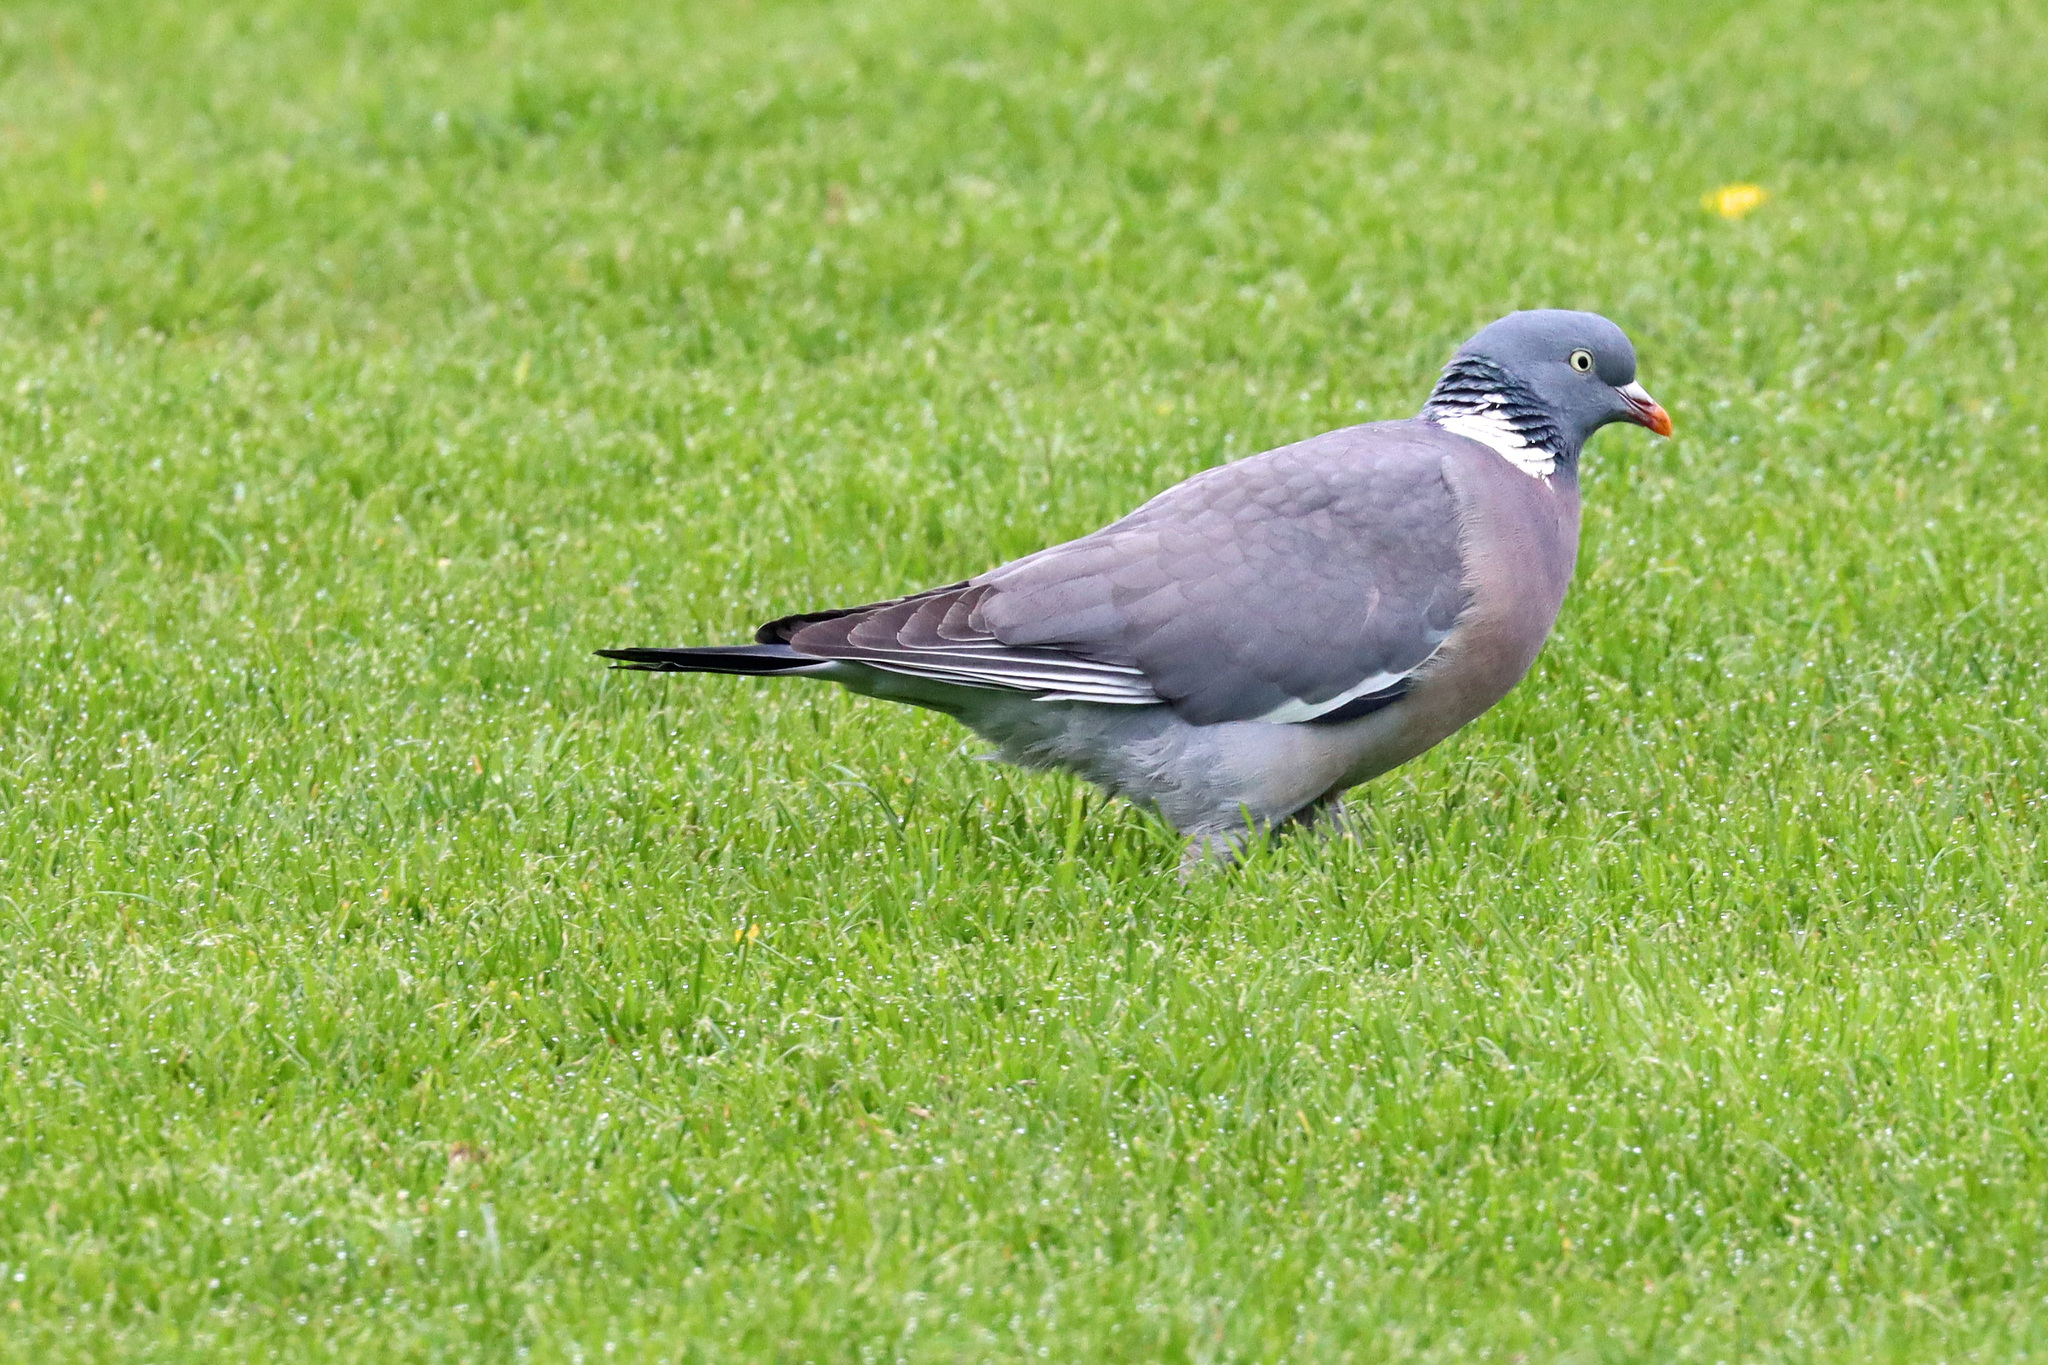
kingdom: Animalia
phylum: Chordata
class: Aves
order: Columbiformes
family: Columbidae
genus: Columba
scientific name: Columba palumbus
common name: Common wood pigeon
